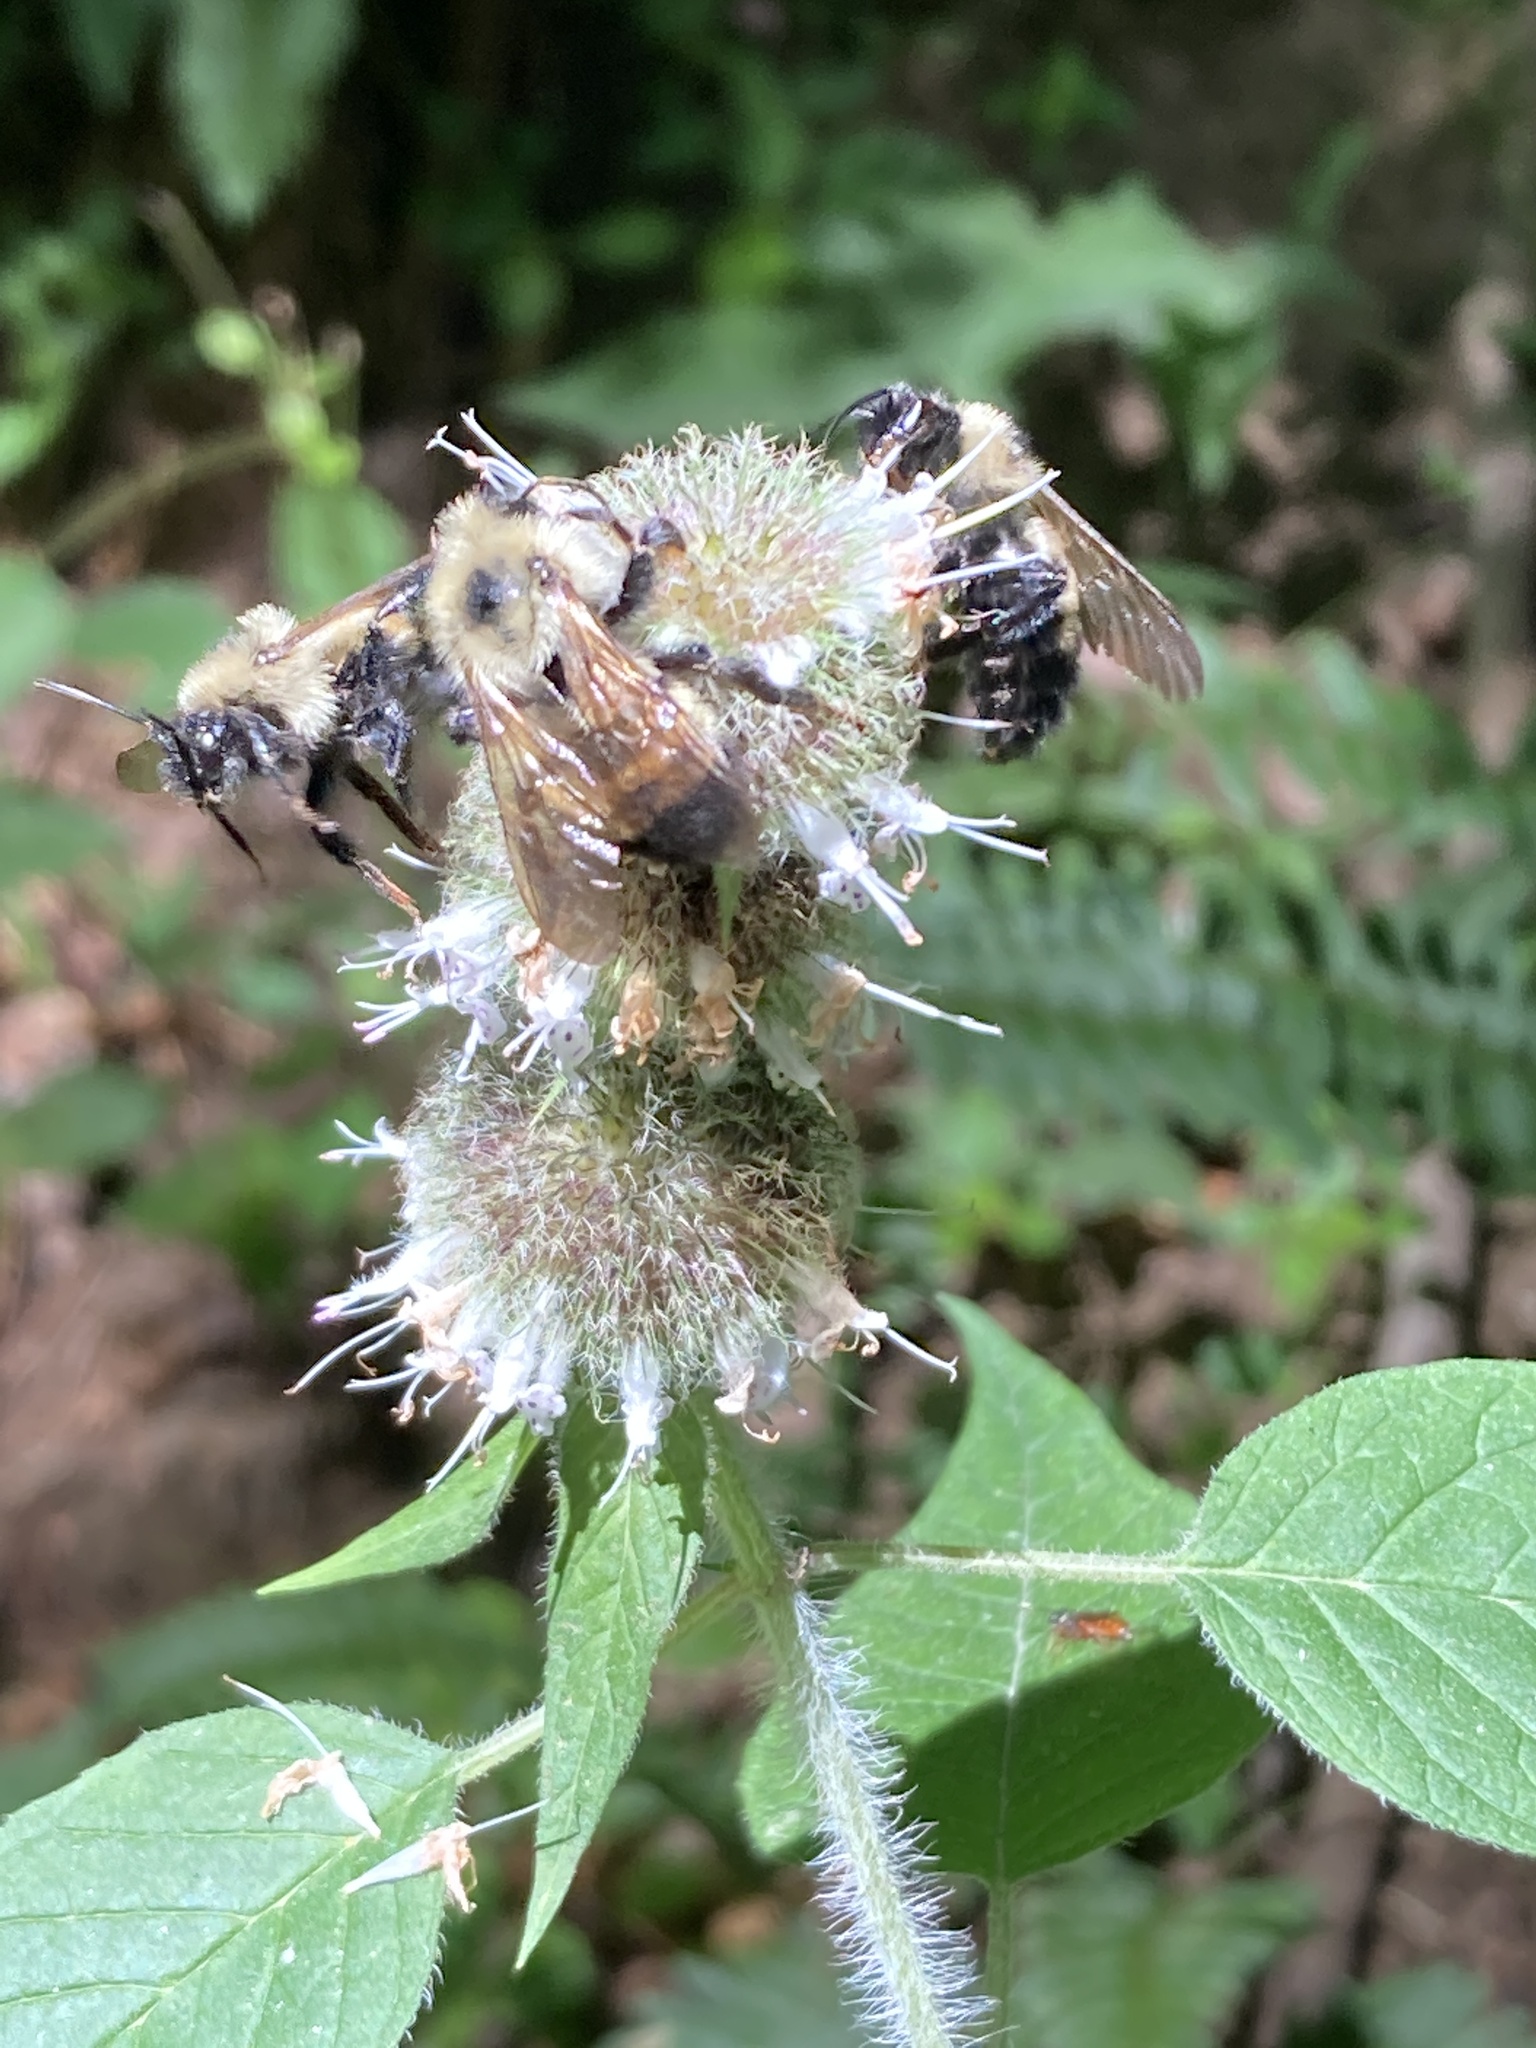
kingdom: Animalia
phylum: Arthropoda
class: Insecta
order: Hymenoptera
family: Apidae
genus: Bombus
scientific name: Bombus citrinus
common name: Lemon cuckoo bumble bee
